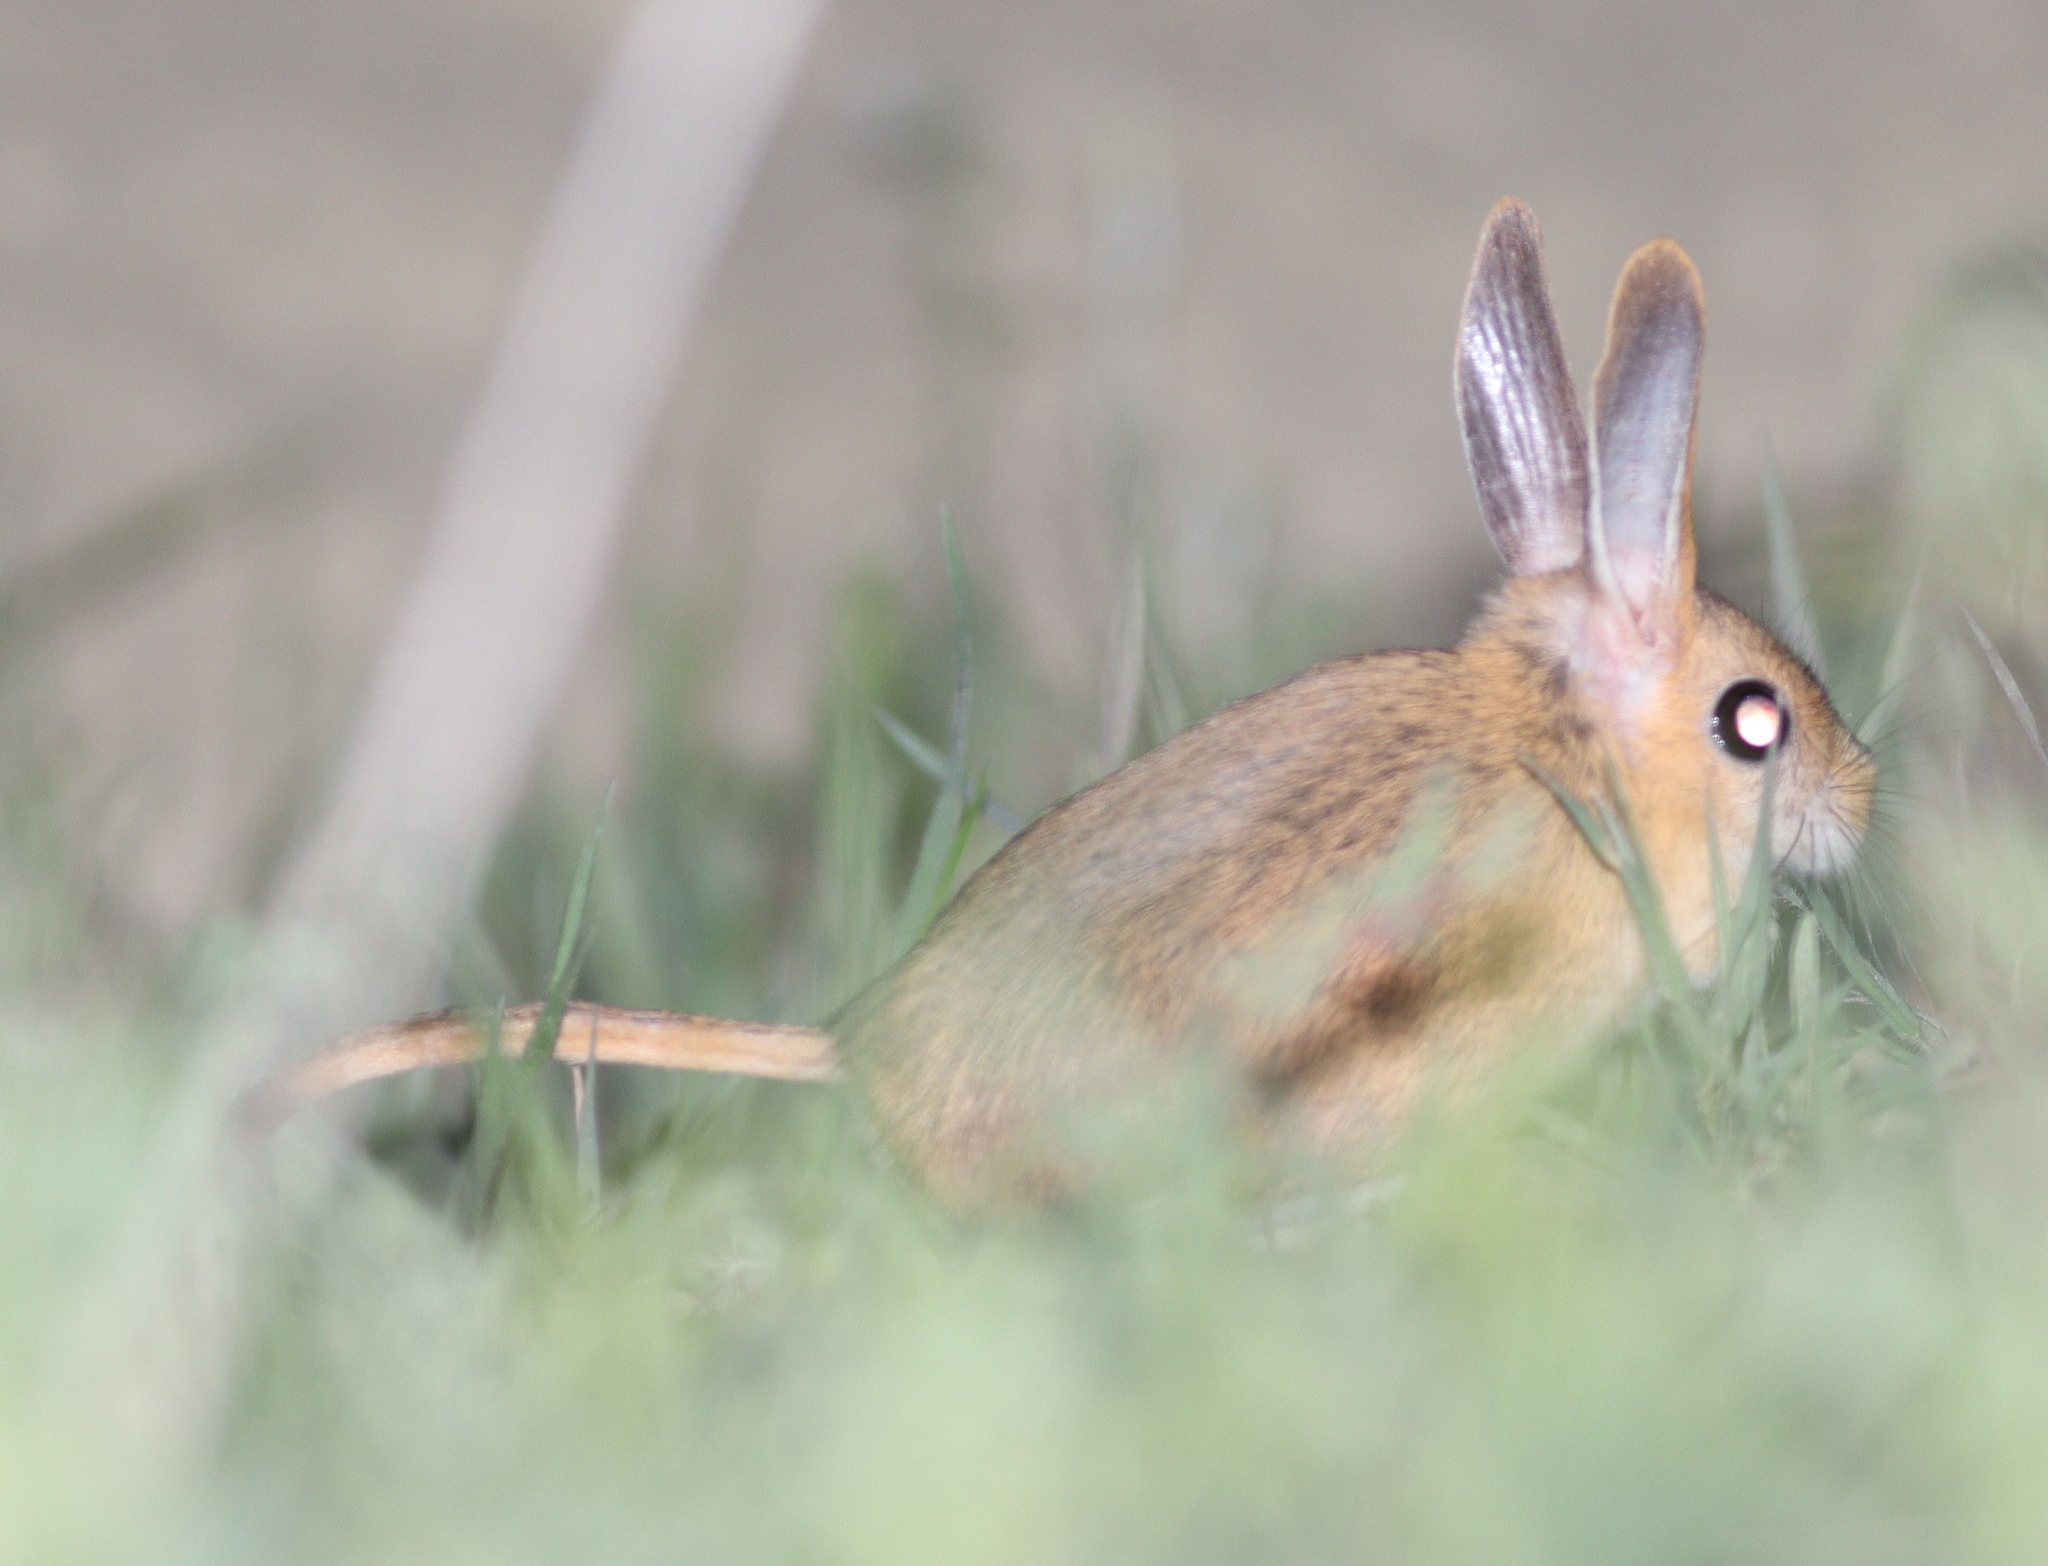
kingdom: Animalia
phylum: Chordata
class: Mammalia
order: Rodentia
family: Dipodidae
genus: Allactaga
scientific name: Allactaga williamsi
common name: Williams s jerboa
